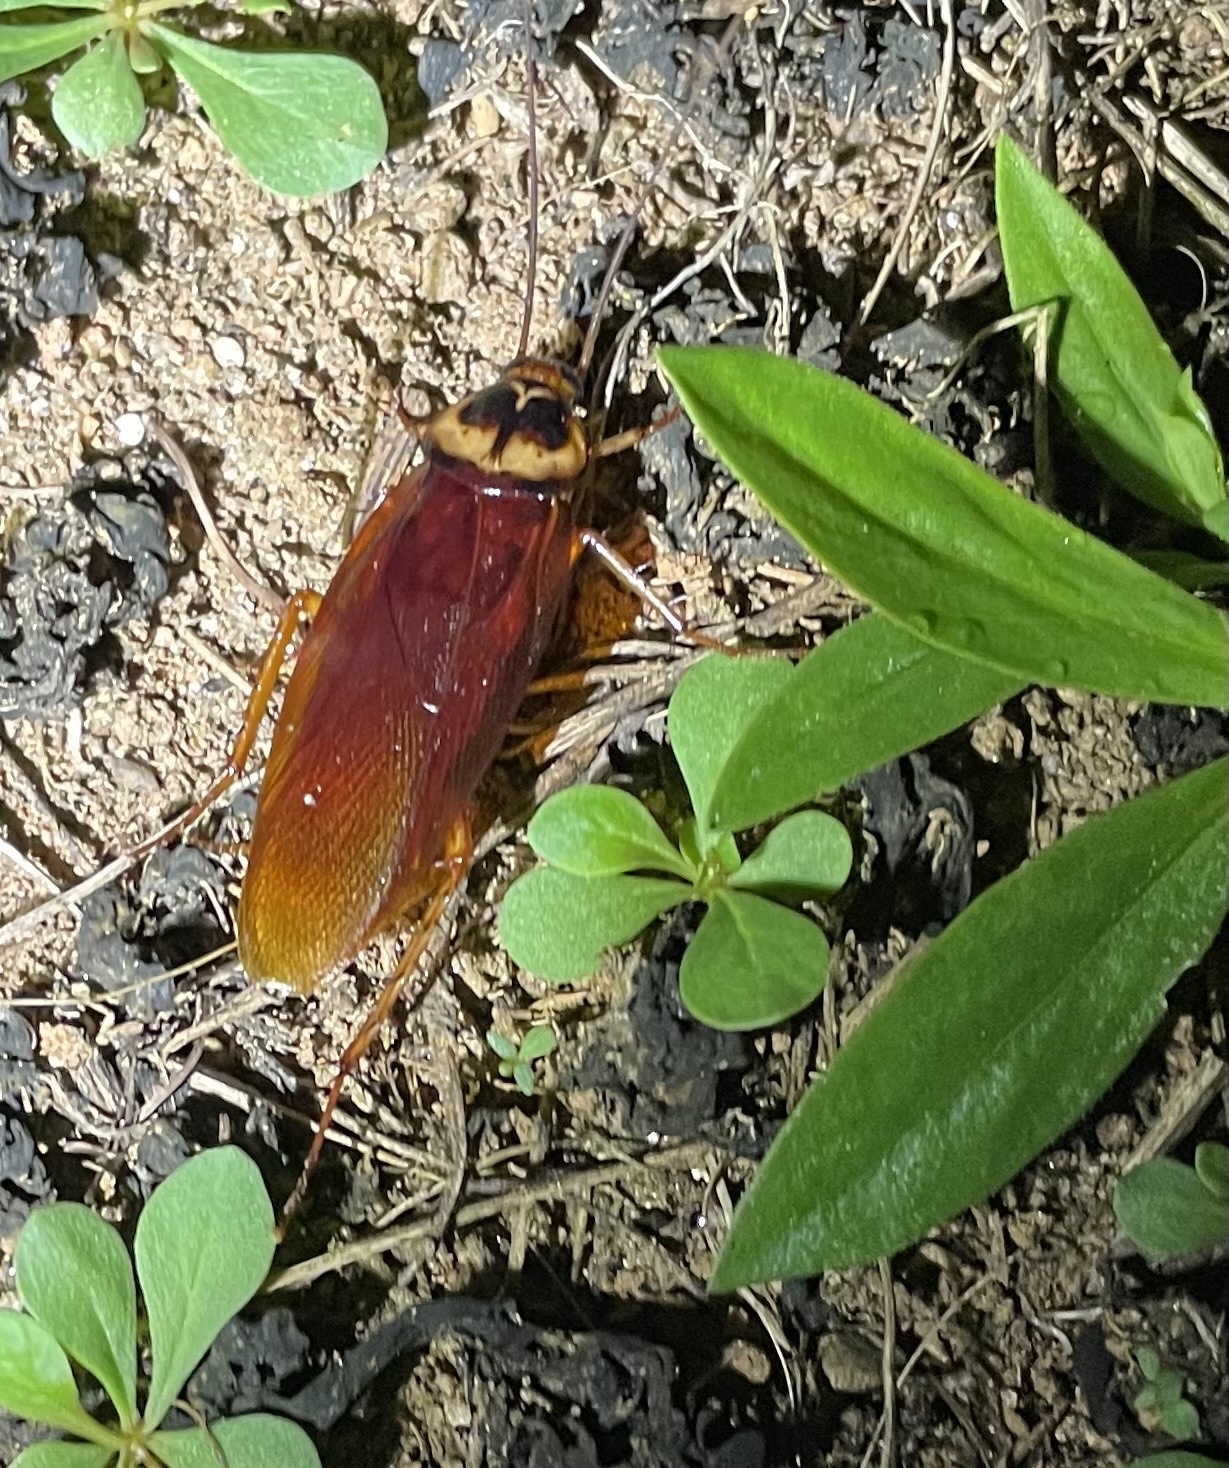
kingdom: Animalia
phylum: Arthropoda
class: Insecta
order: Blattodea
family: Blattidae
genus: Periplaneta
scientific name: Periplaneta americana
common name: American cockroach
